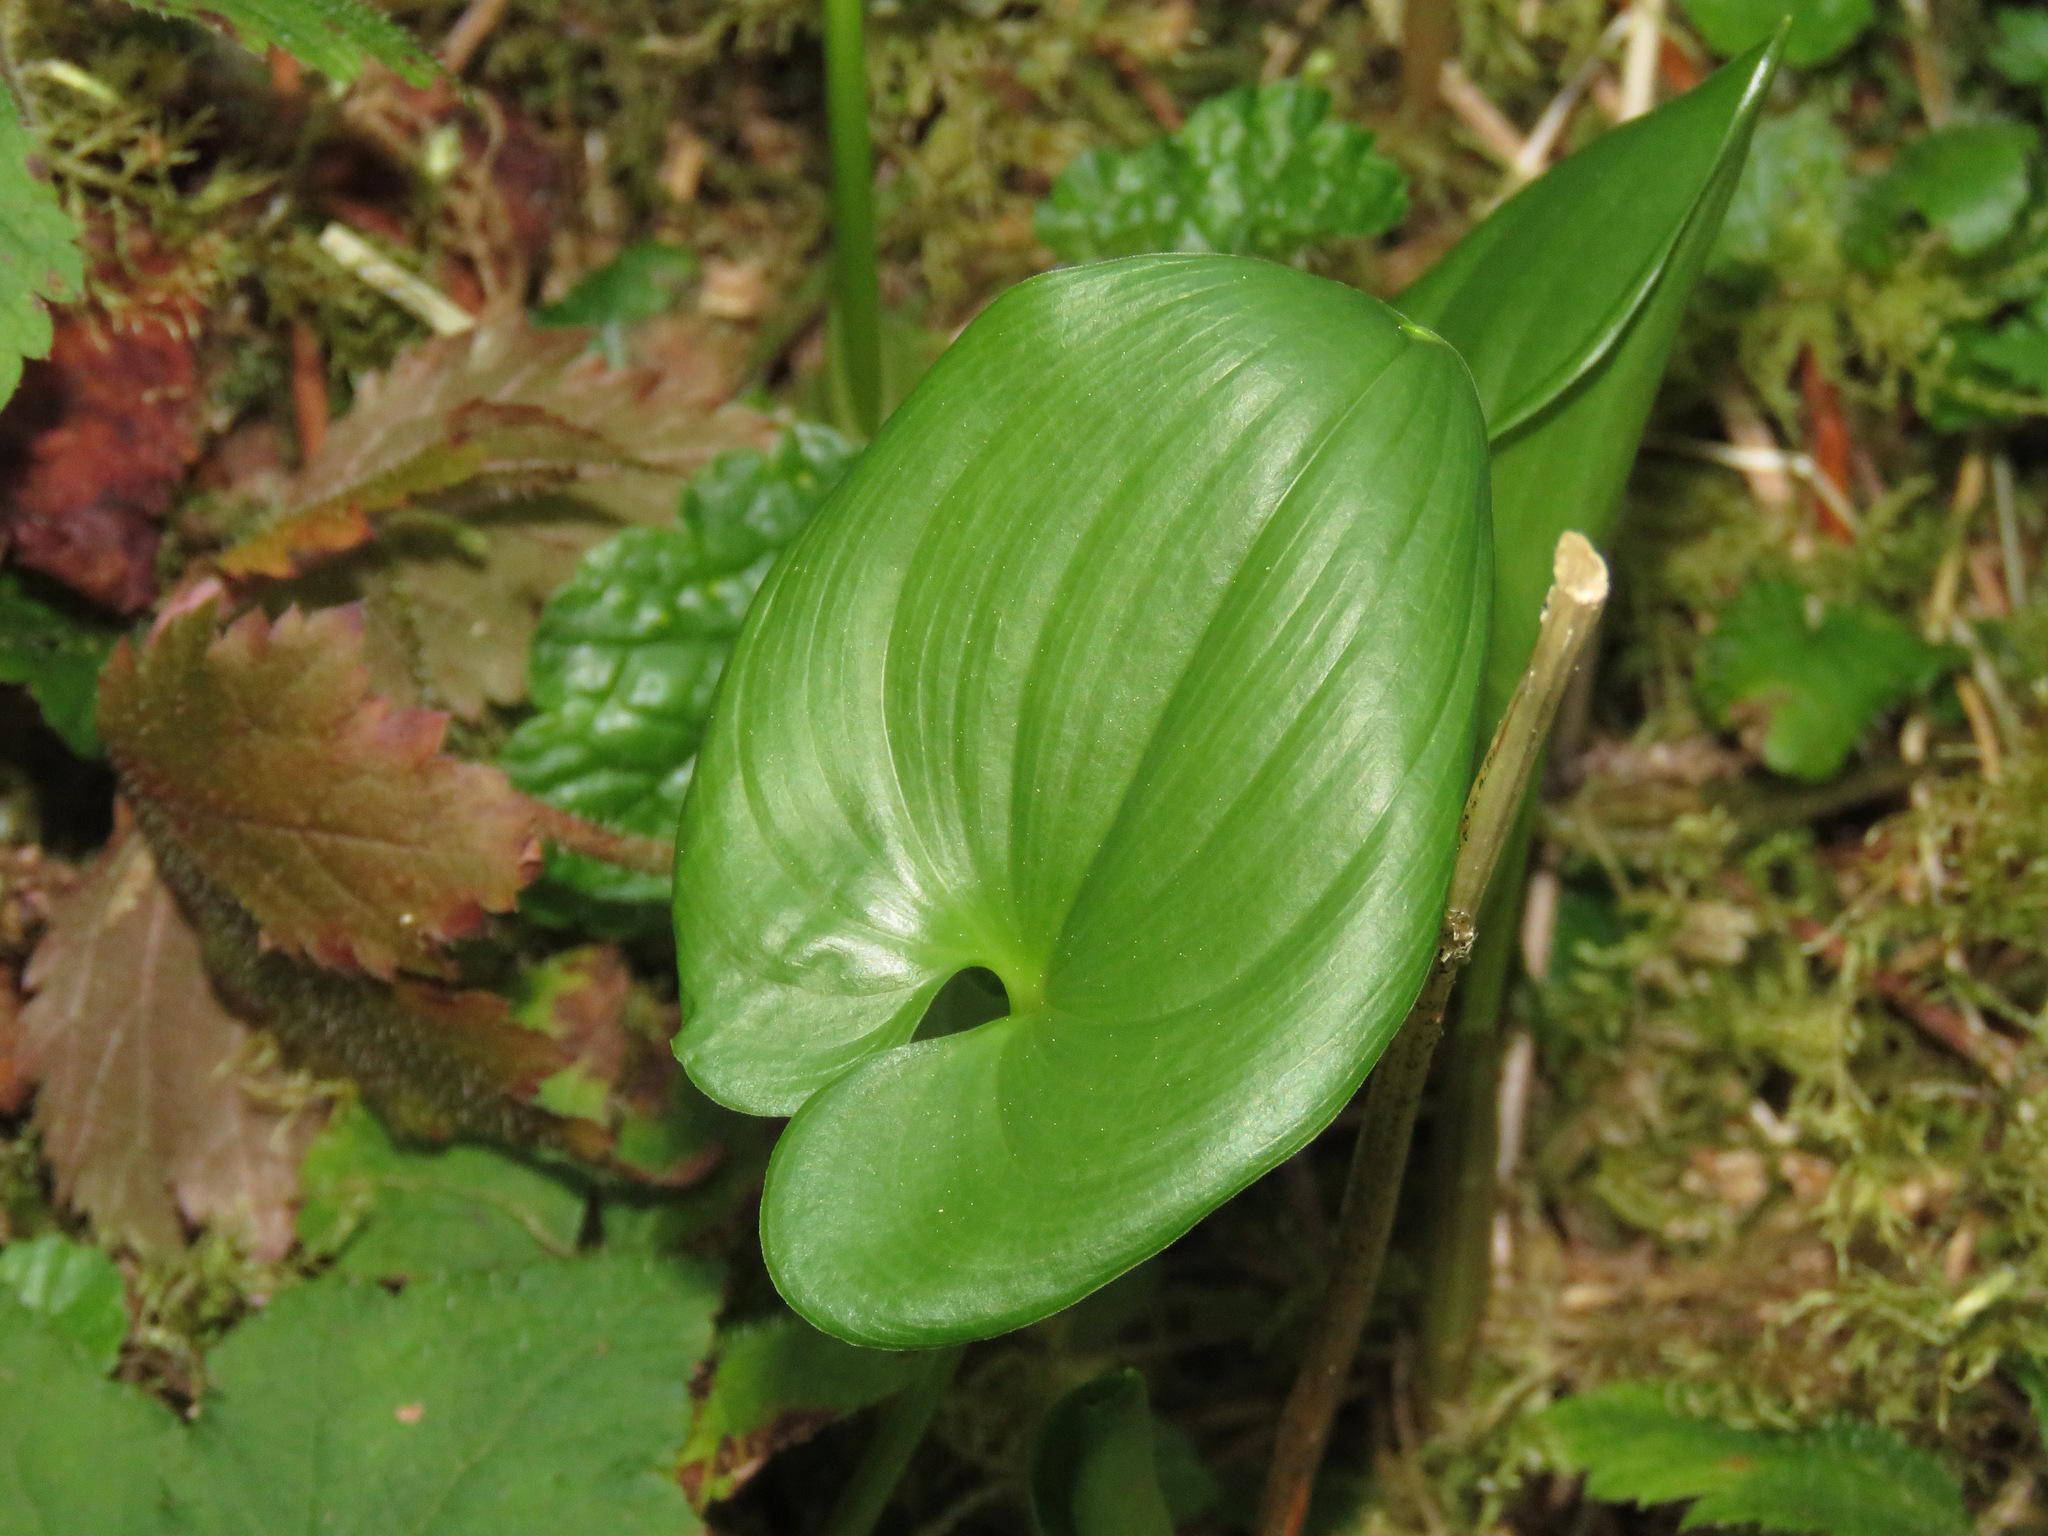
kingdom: Plantae
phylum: Tracheophyta
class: Liliopsida
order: Asparagales
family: Asparagaceae
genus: Maianthemum
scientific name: Maianthemum dilatatum
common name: False lily-of-the-valley
